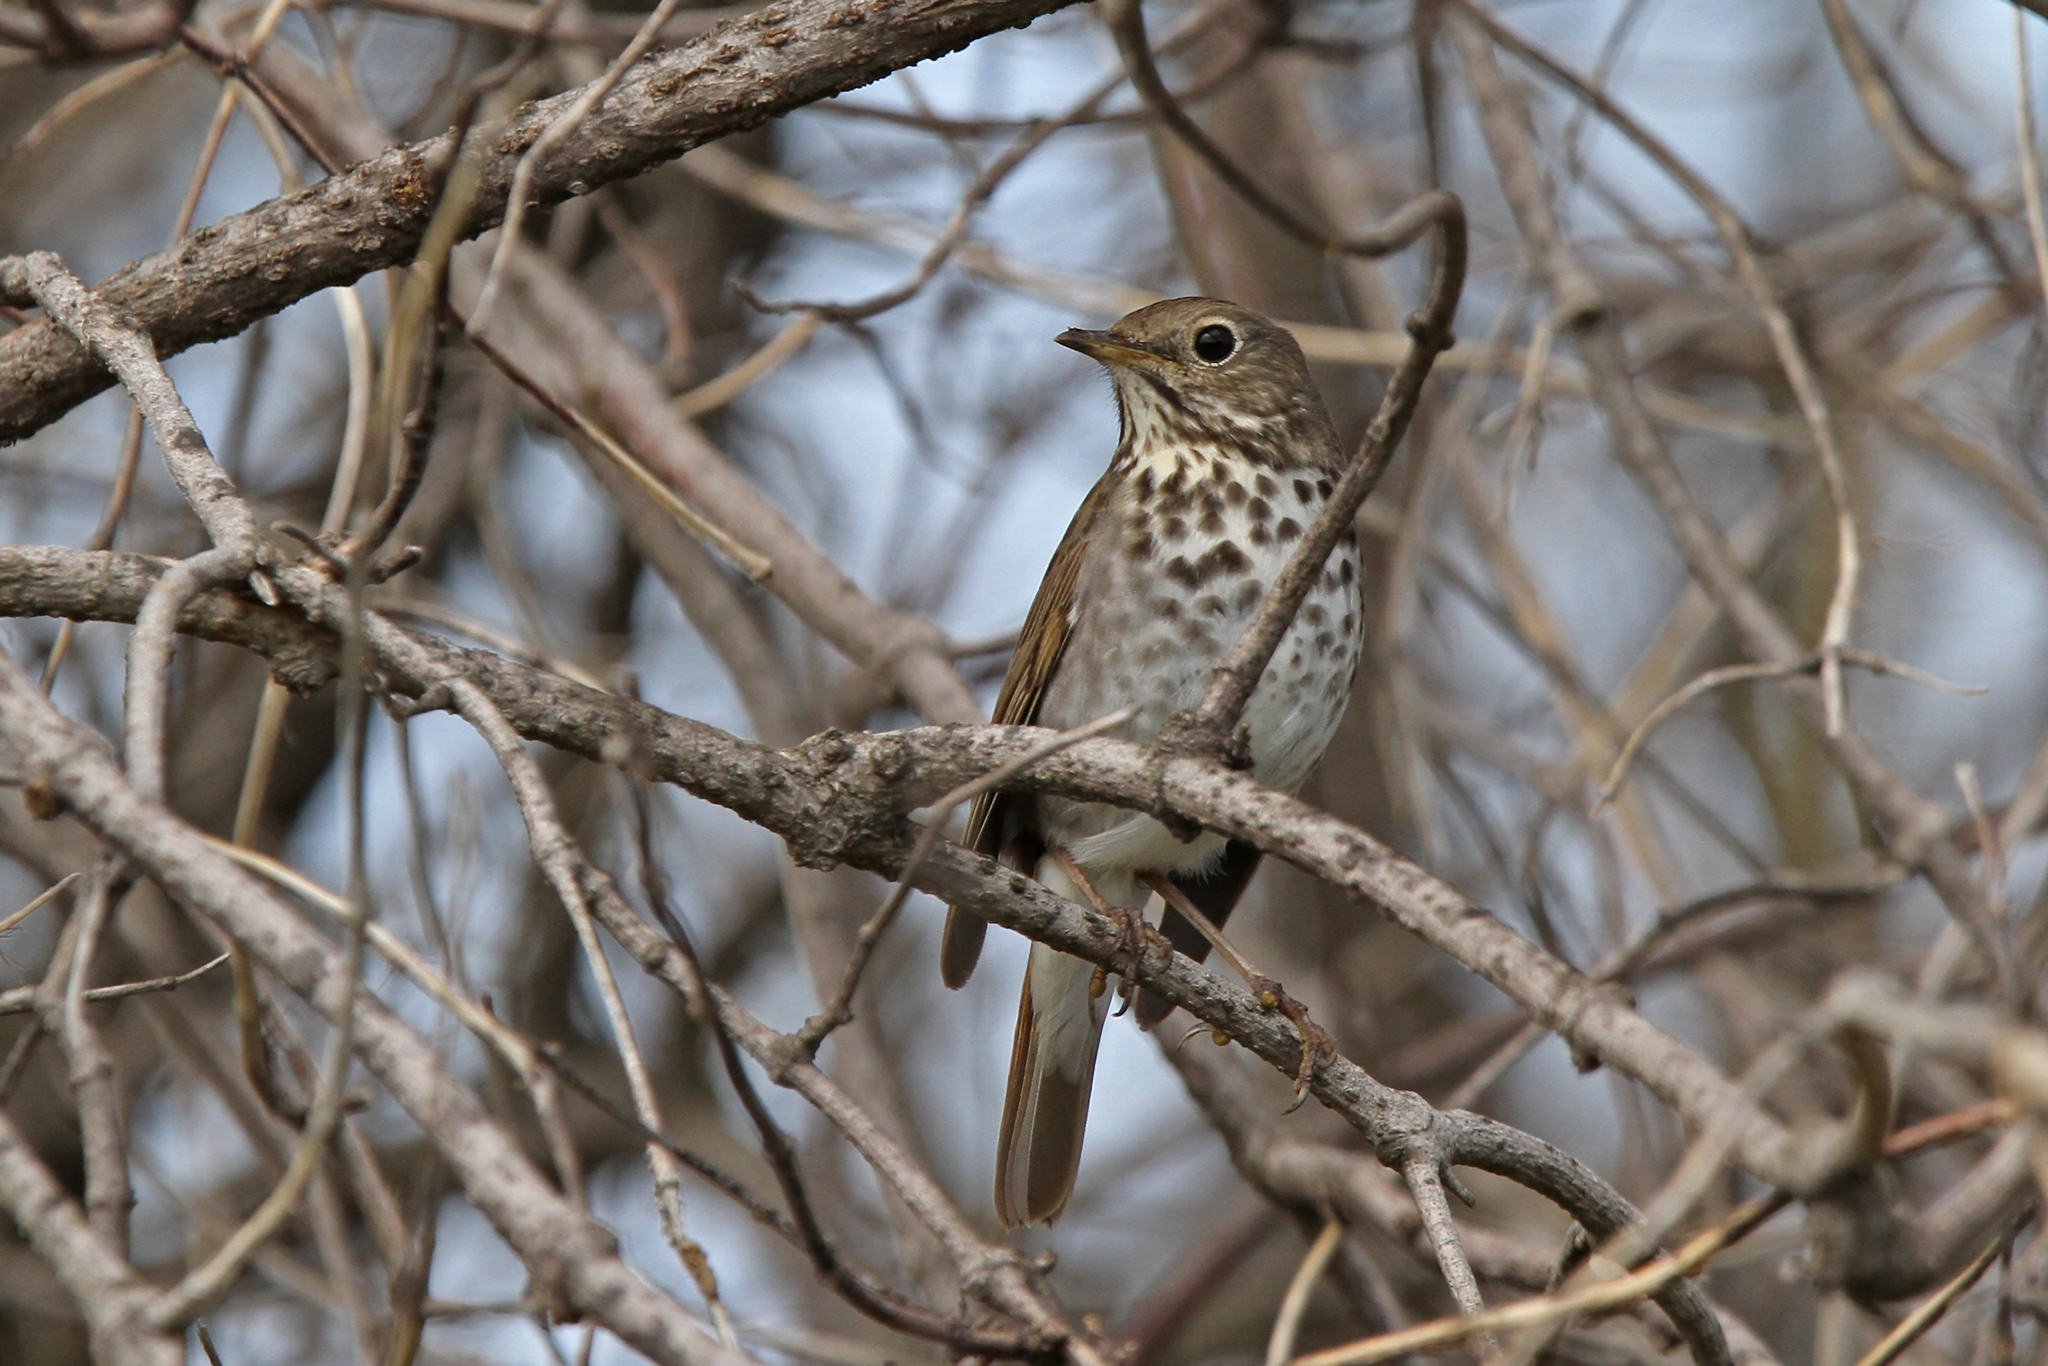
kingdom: Animalia
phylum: Chordata
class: Aves
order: Passeriformes
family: Turdidae
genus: Catharus
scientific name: Catharus guttatus
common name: Hermit thrush
